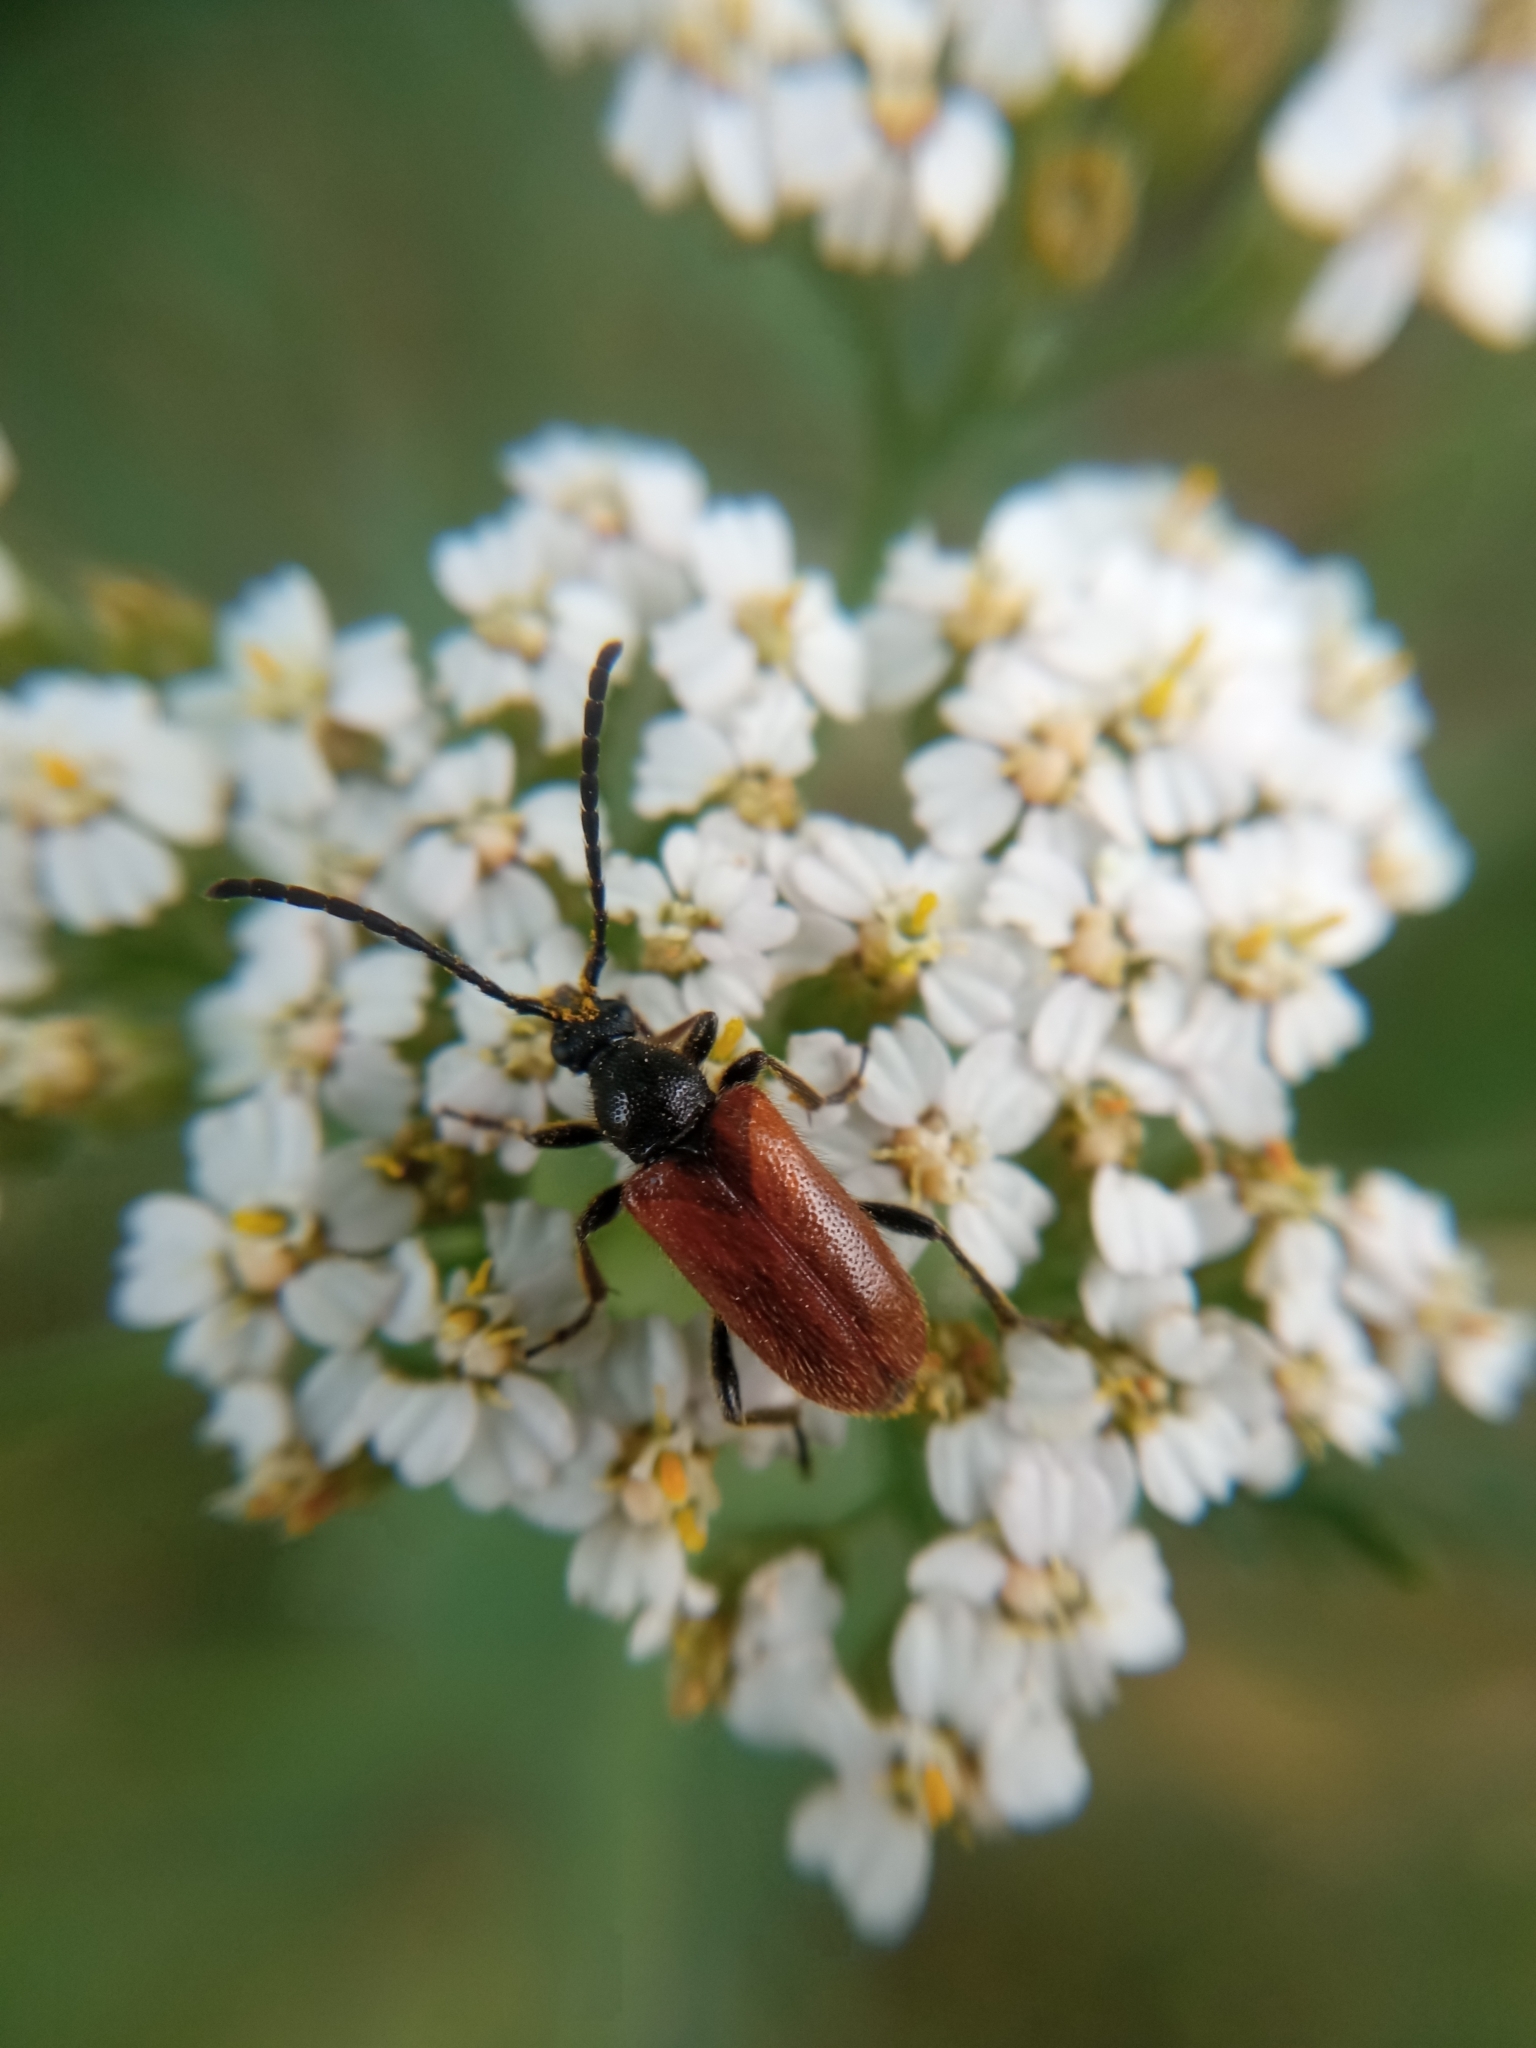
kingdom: Animalia
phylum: Arthropoda
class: Insecta
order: Coleoptera
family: Cerambycidae
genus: Pseudovadonia
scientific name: Pseudovadonia livida
